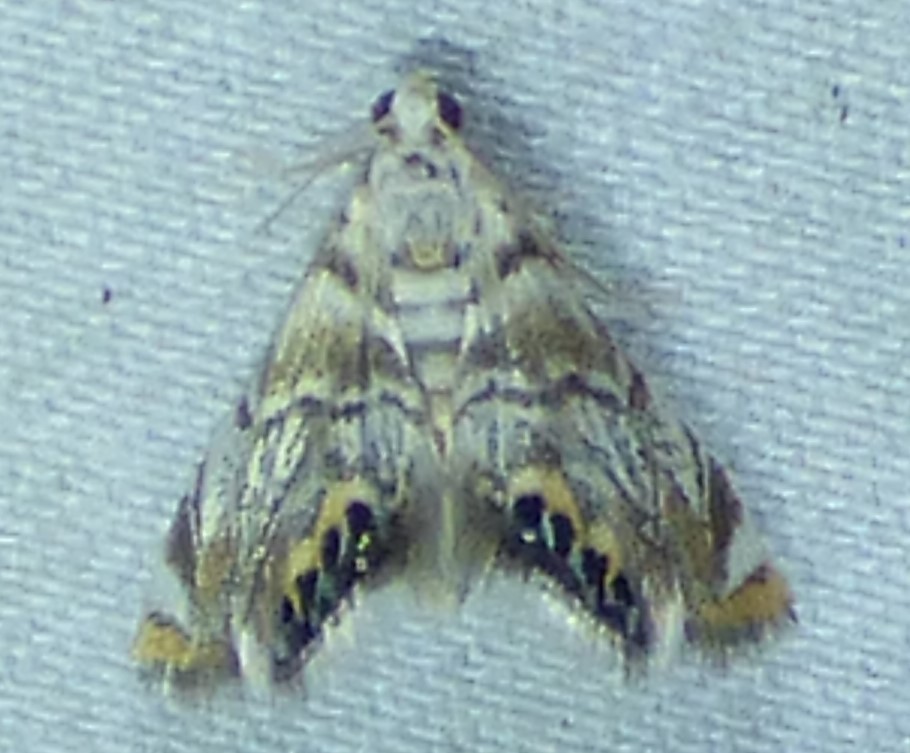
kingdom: Animalia
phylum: Arthropoda
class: Insecta
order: Lepidoptera
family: Crambidae
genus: Eoparargyractis
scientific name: Eoparargyractis irroratalis
